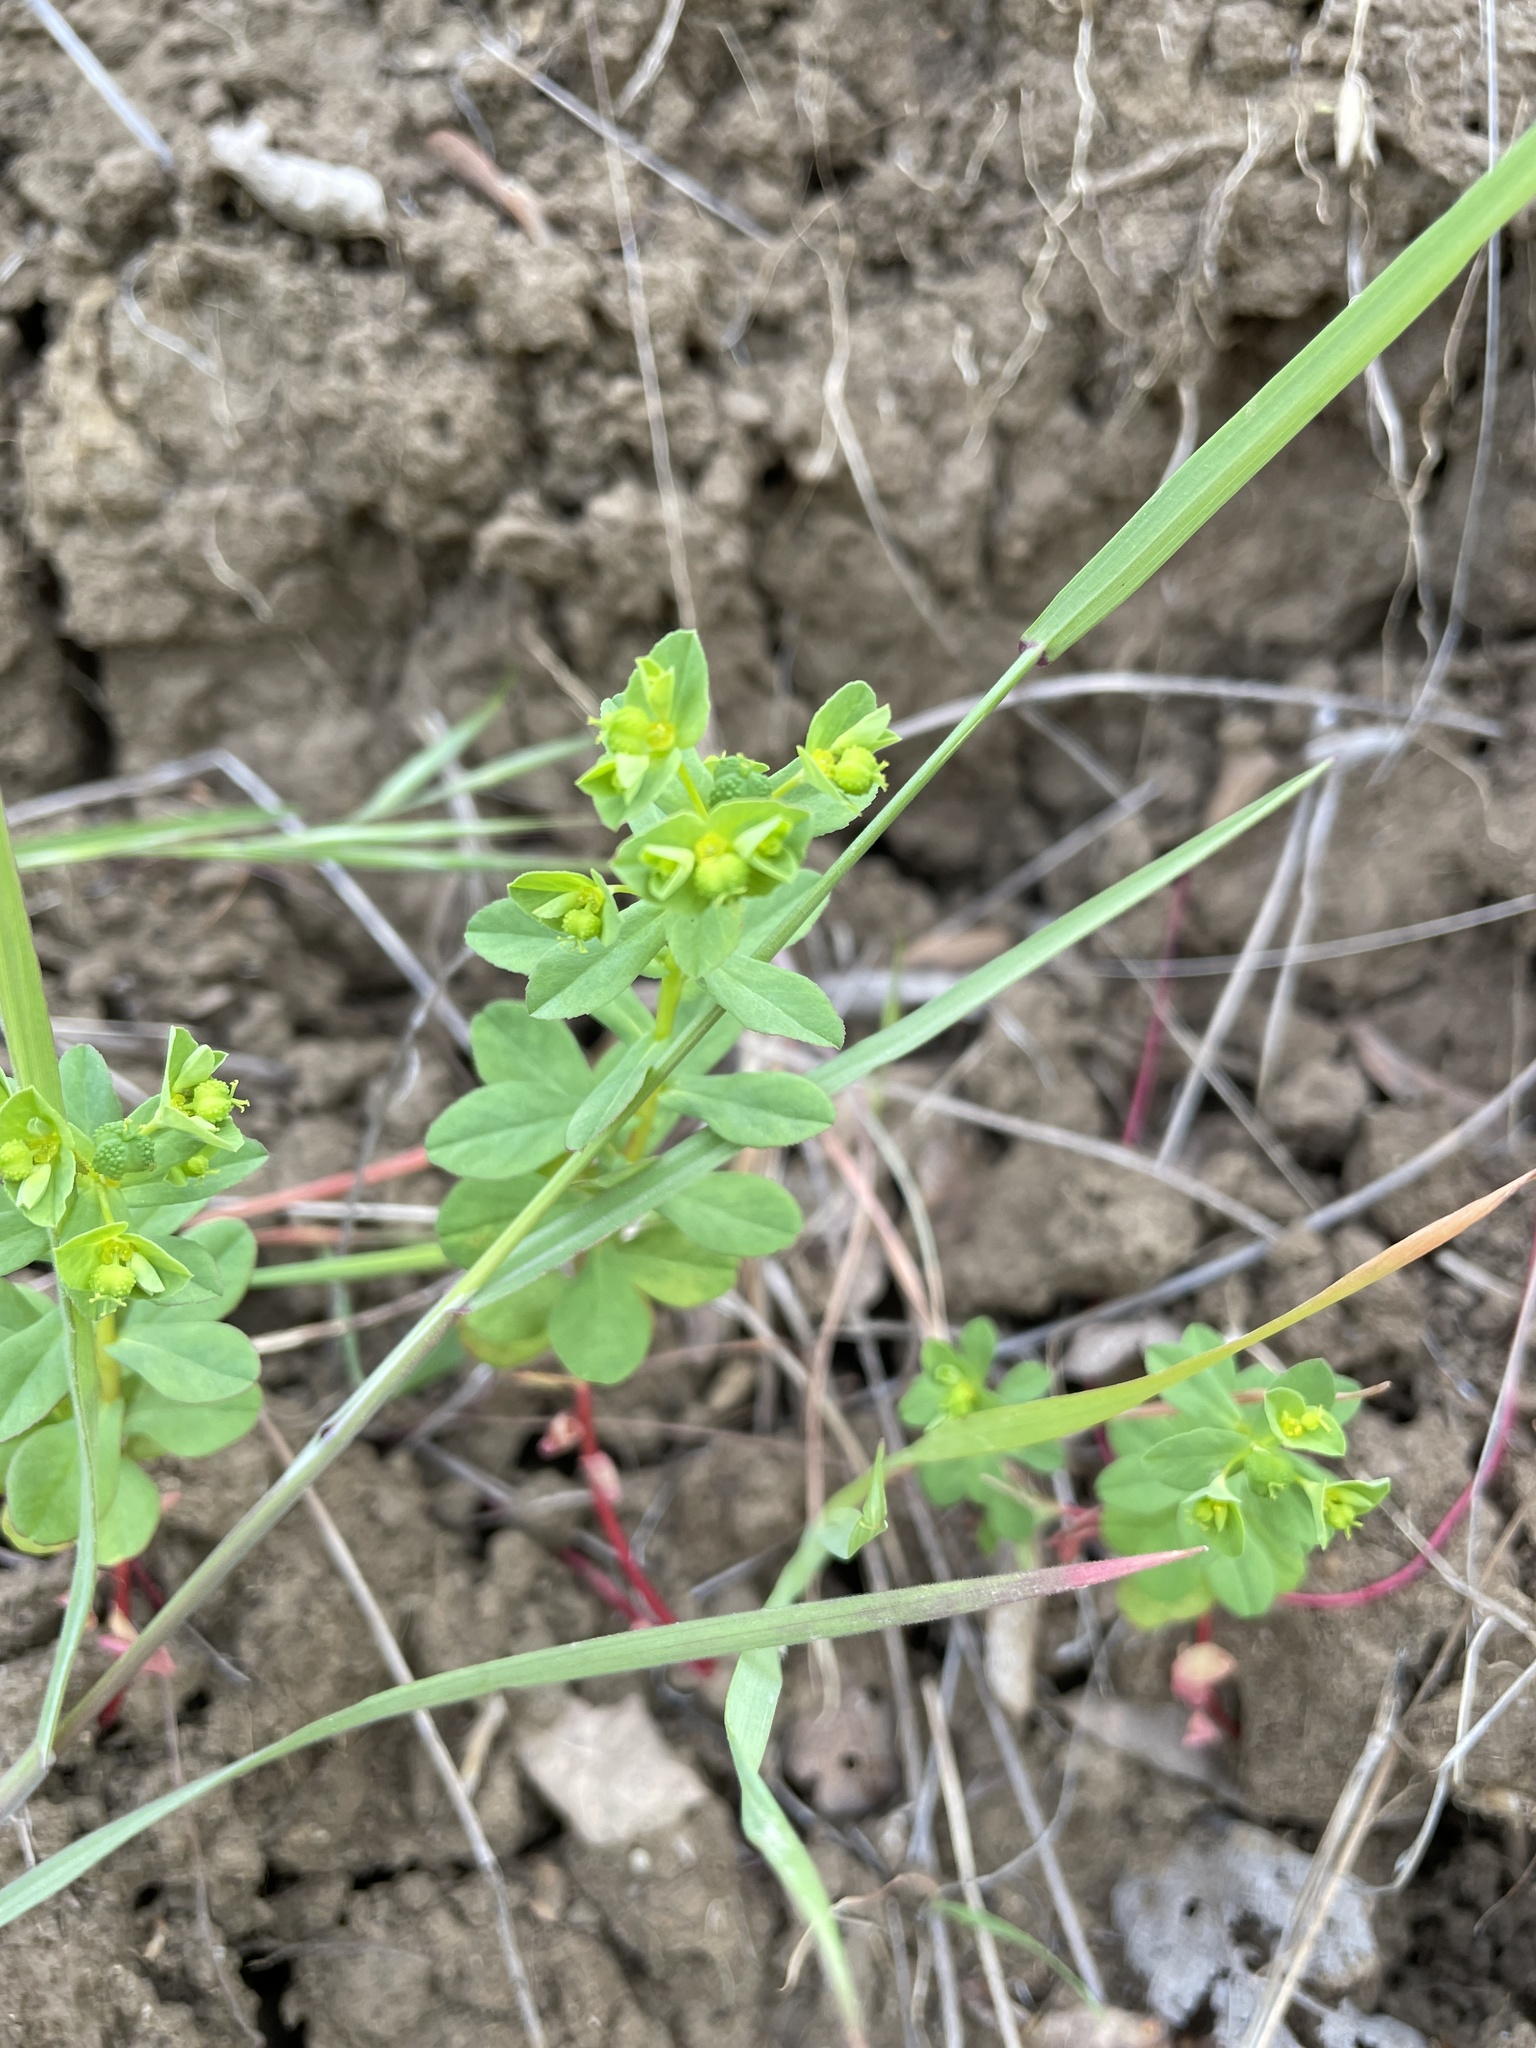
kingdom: Plantae
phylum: Tracheophyta
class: Magnoliopsida
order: Malpighiales
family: Euphorbiaceae
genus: Euphorbia
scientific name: Euphorbia spathulata
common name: Blunt spurge
